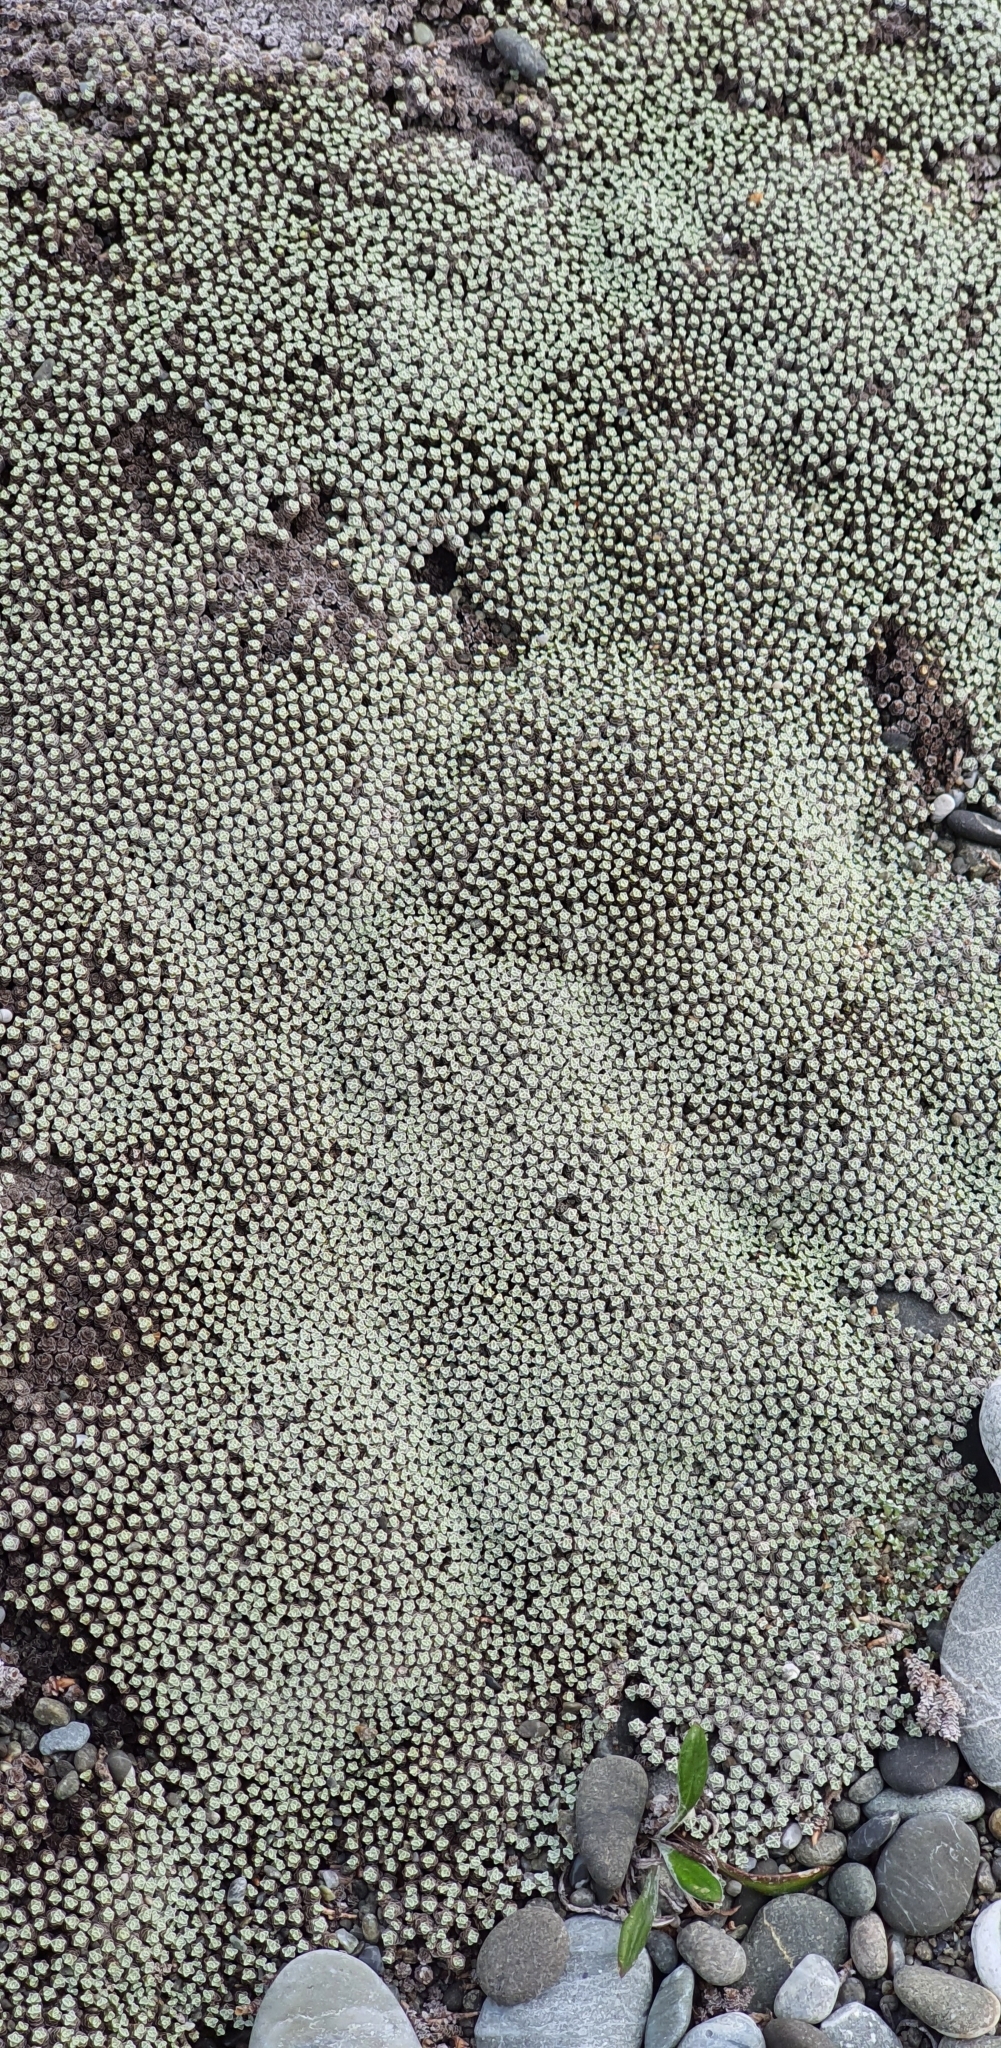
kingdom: Plantae
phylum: Tracheophyta
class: Magnoliopsida
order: Asterales
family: Asteraceae
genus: Raoulia
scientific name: Raoulia australis
